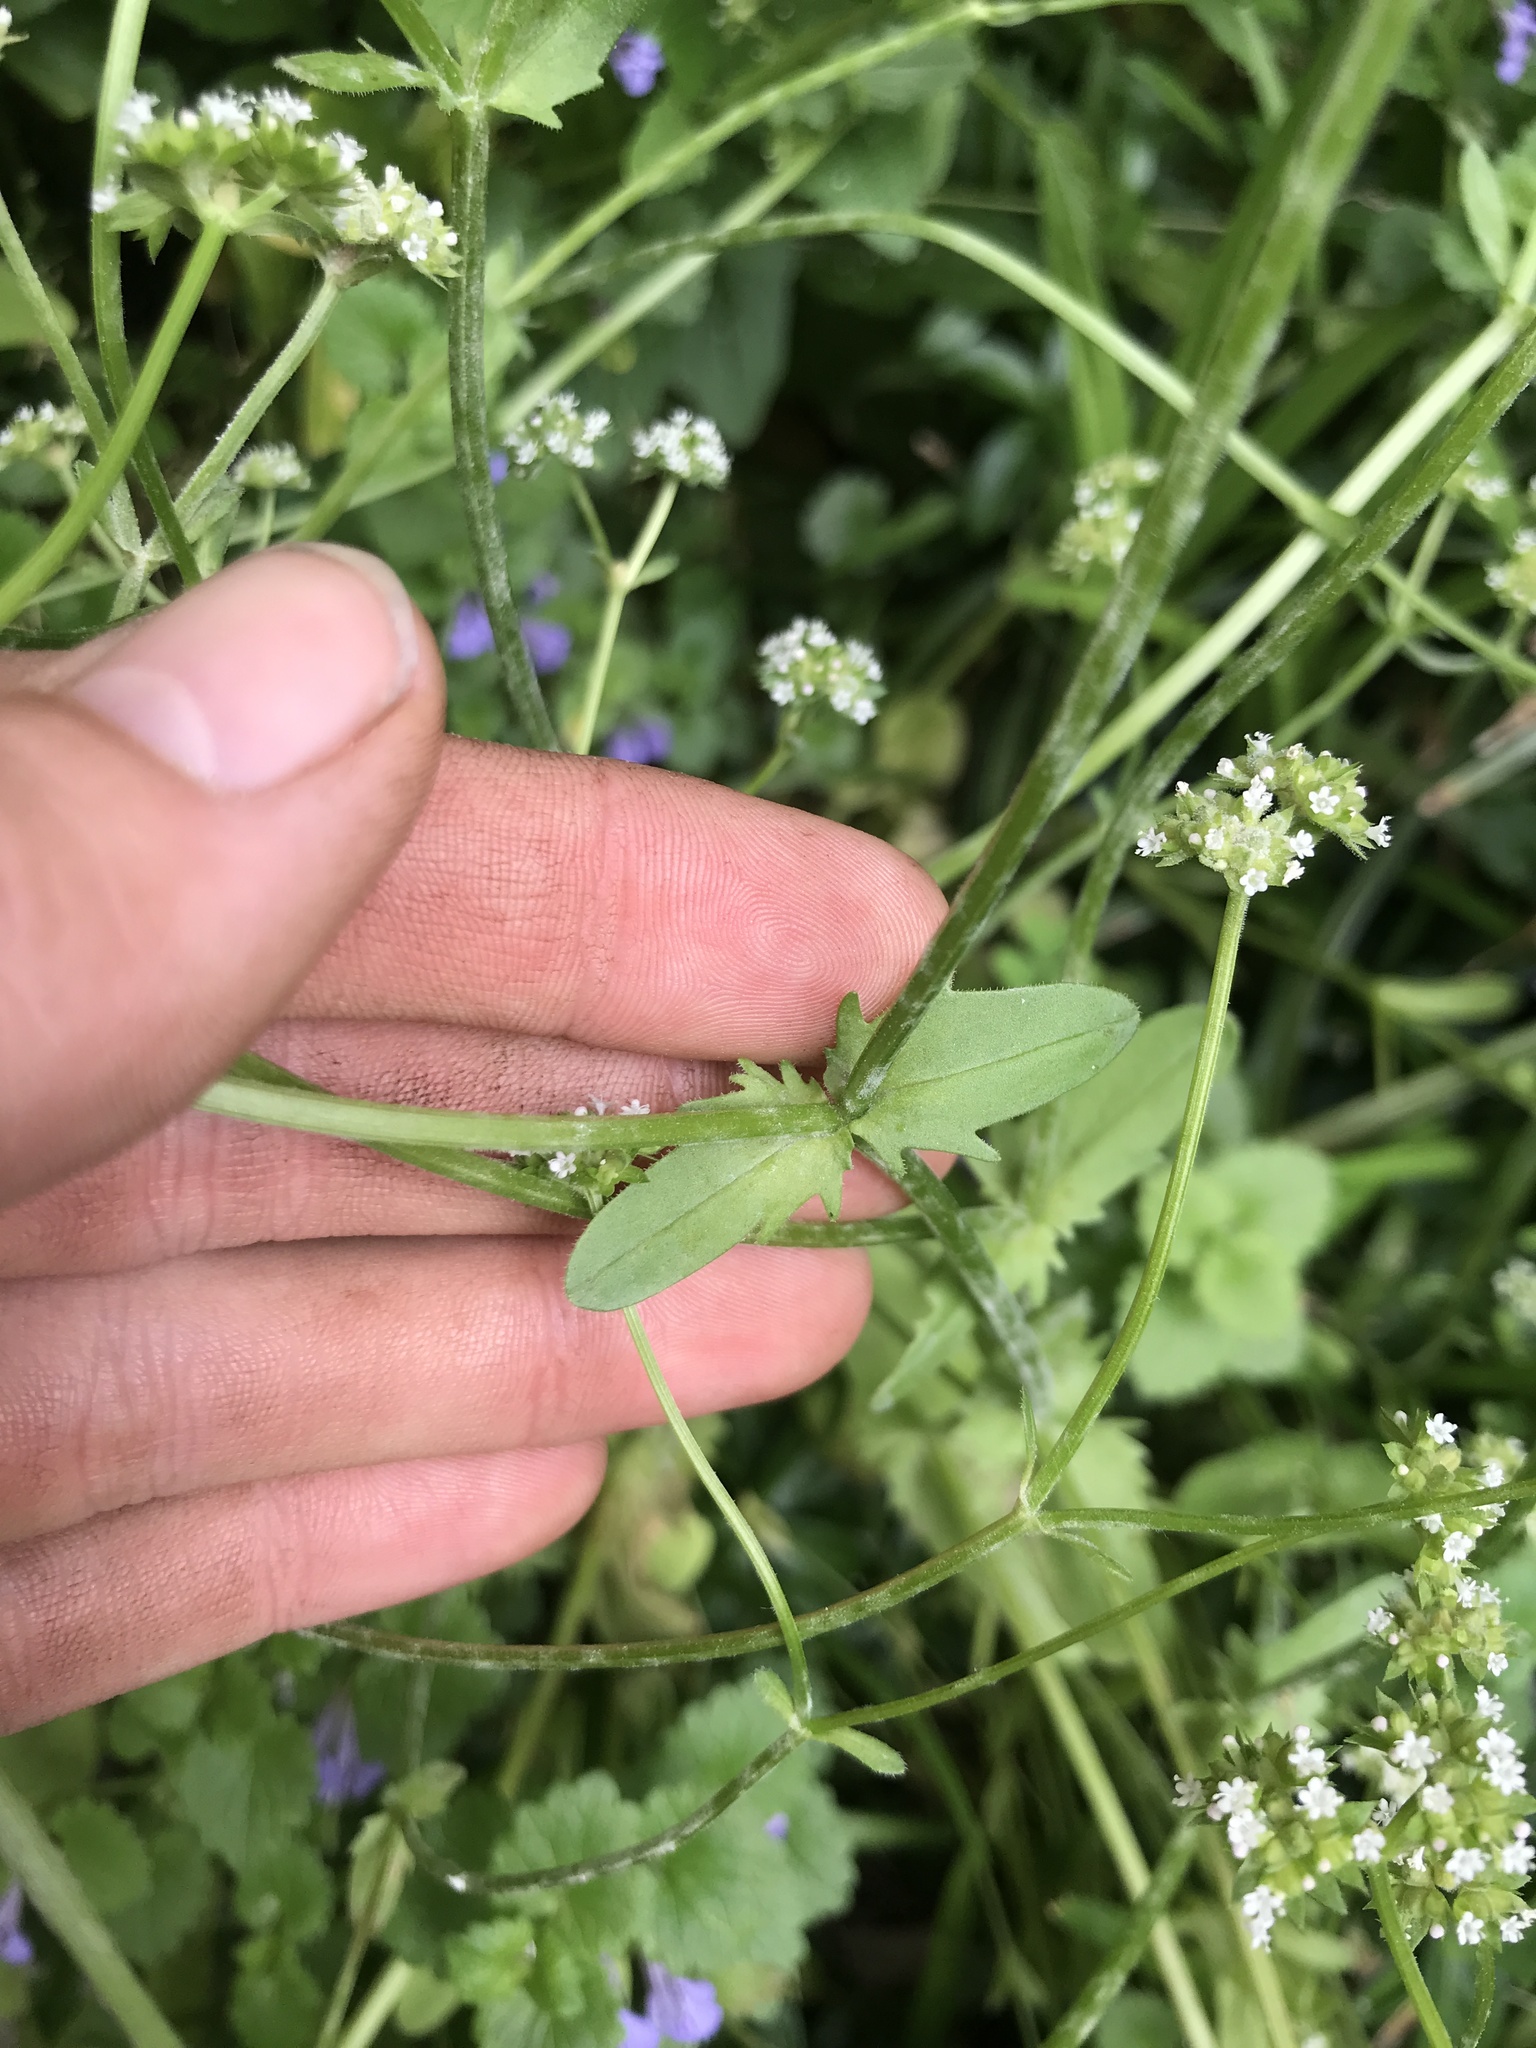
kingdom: Plantae
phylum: Tracheophyta
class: Magnoliopsida
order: Dipsacales
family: Caprifoliaceae
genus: Valerianella
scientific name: Valerianella locusta
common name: Common cornsalad
